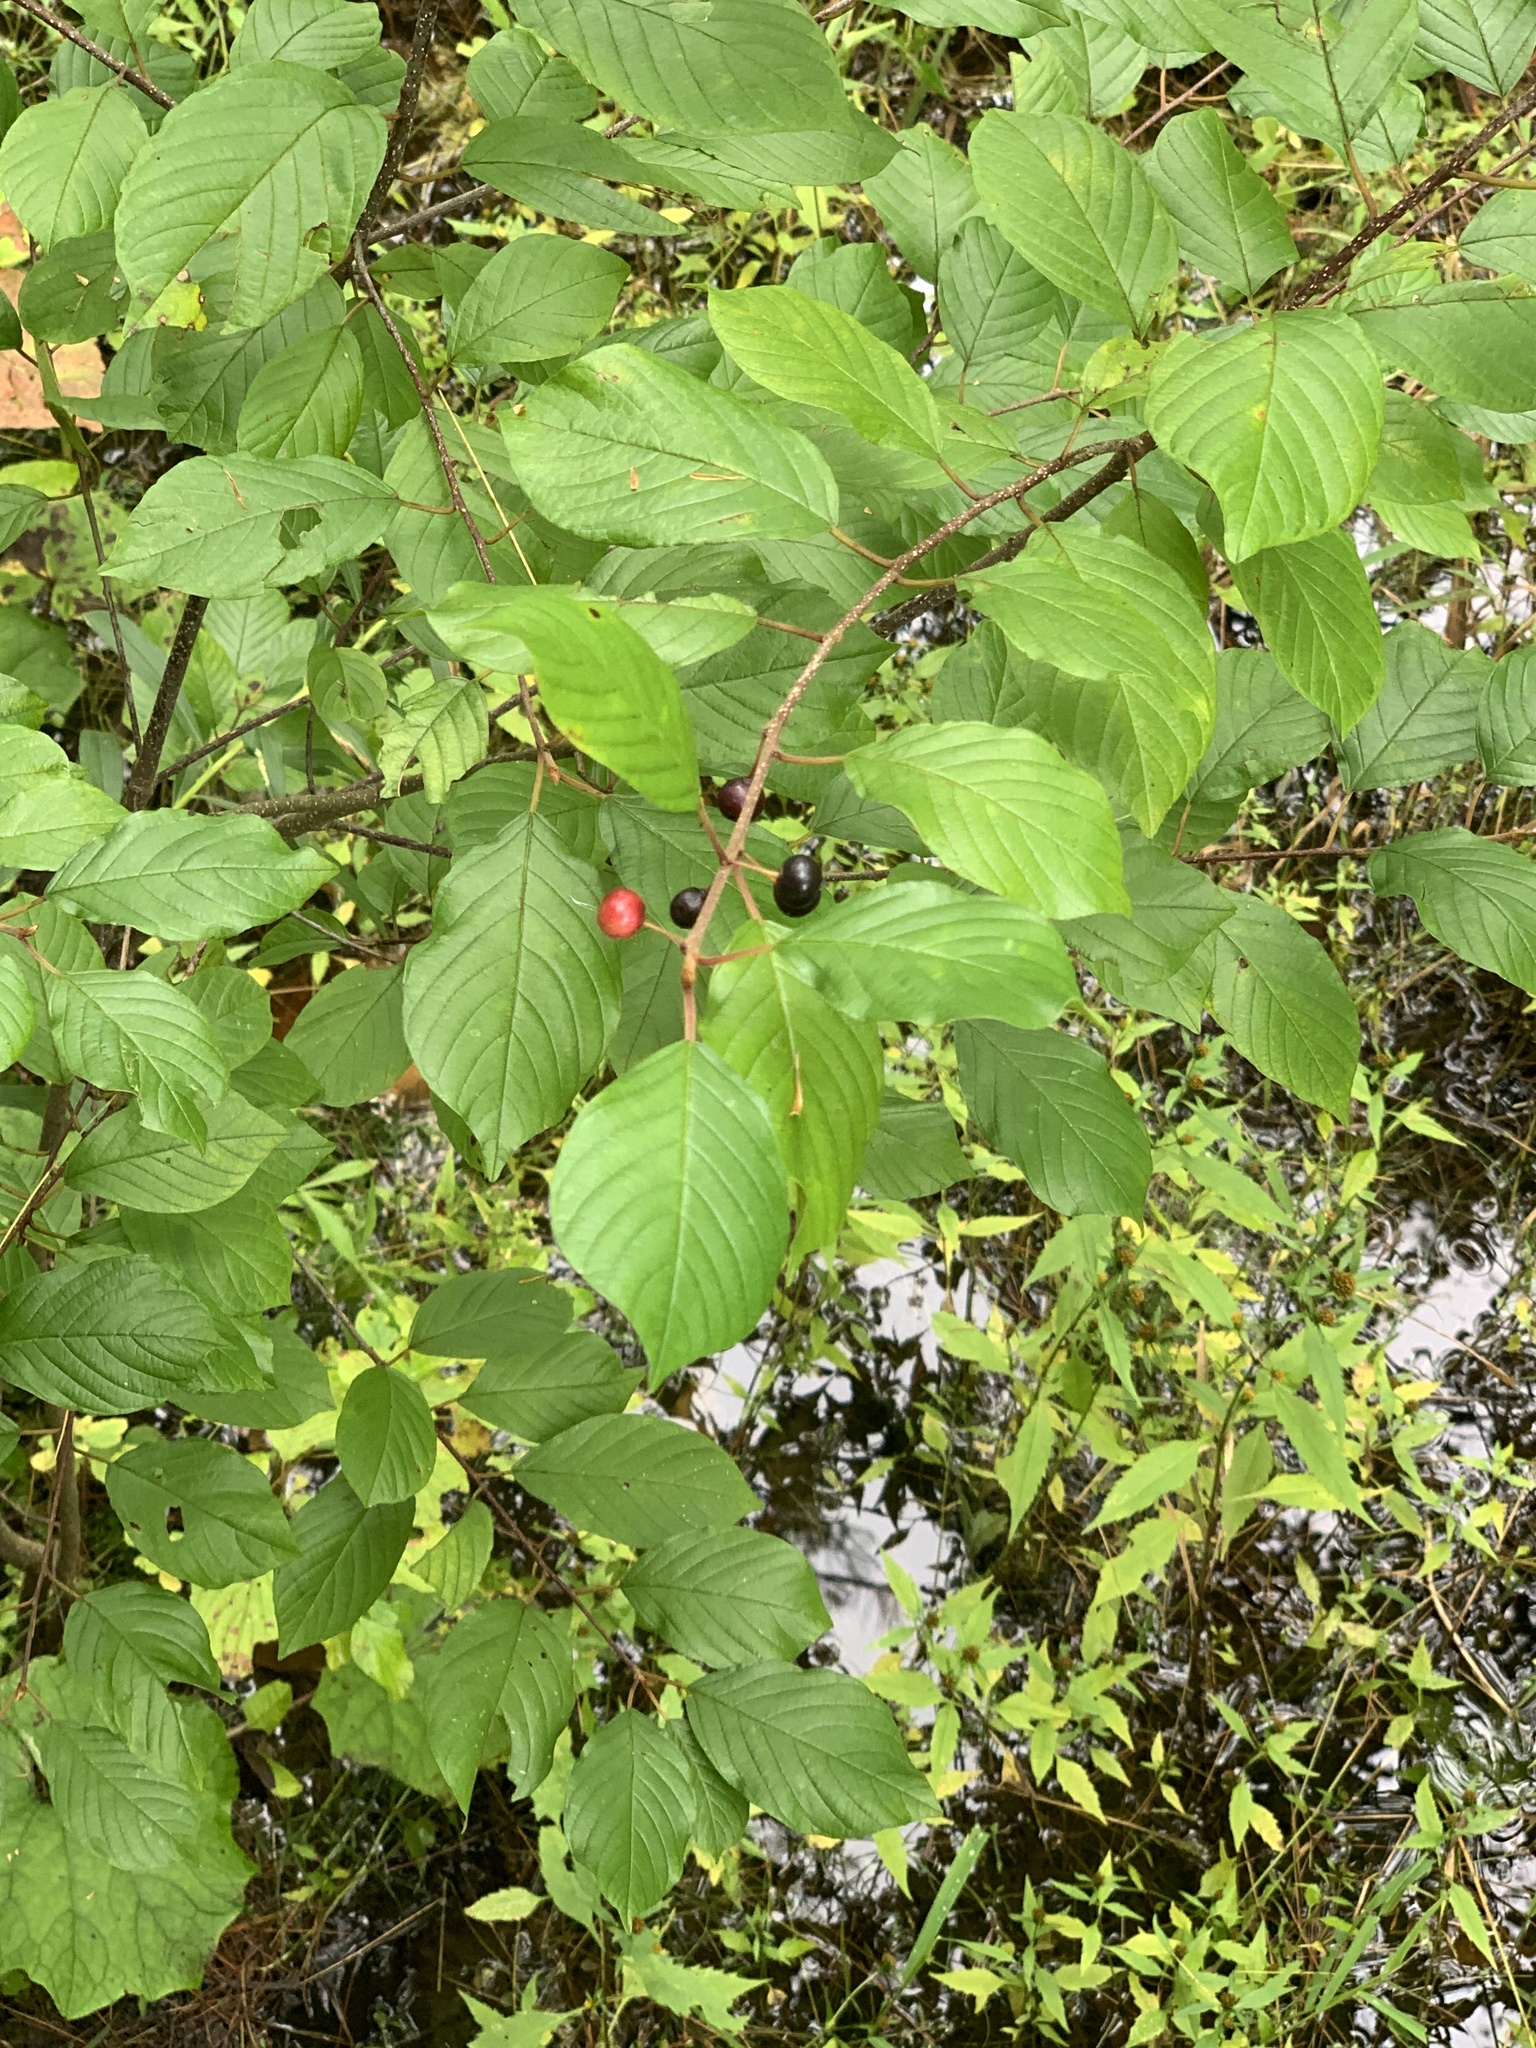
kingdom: Plantae
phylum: Tracheophyta
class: Magnoliopsida
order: Rosales
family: Rhamnaceae
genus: Frangula
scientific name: Frangula alnus
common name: Alder buckthorn
